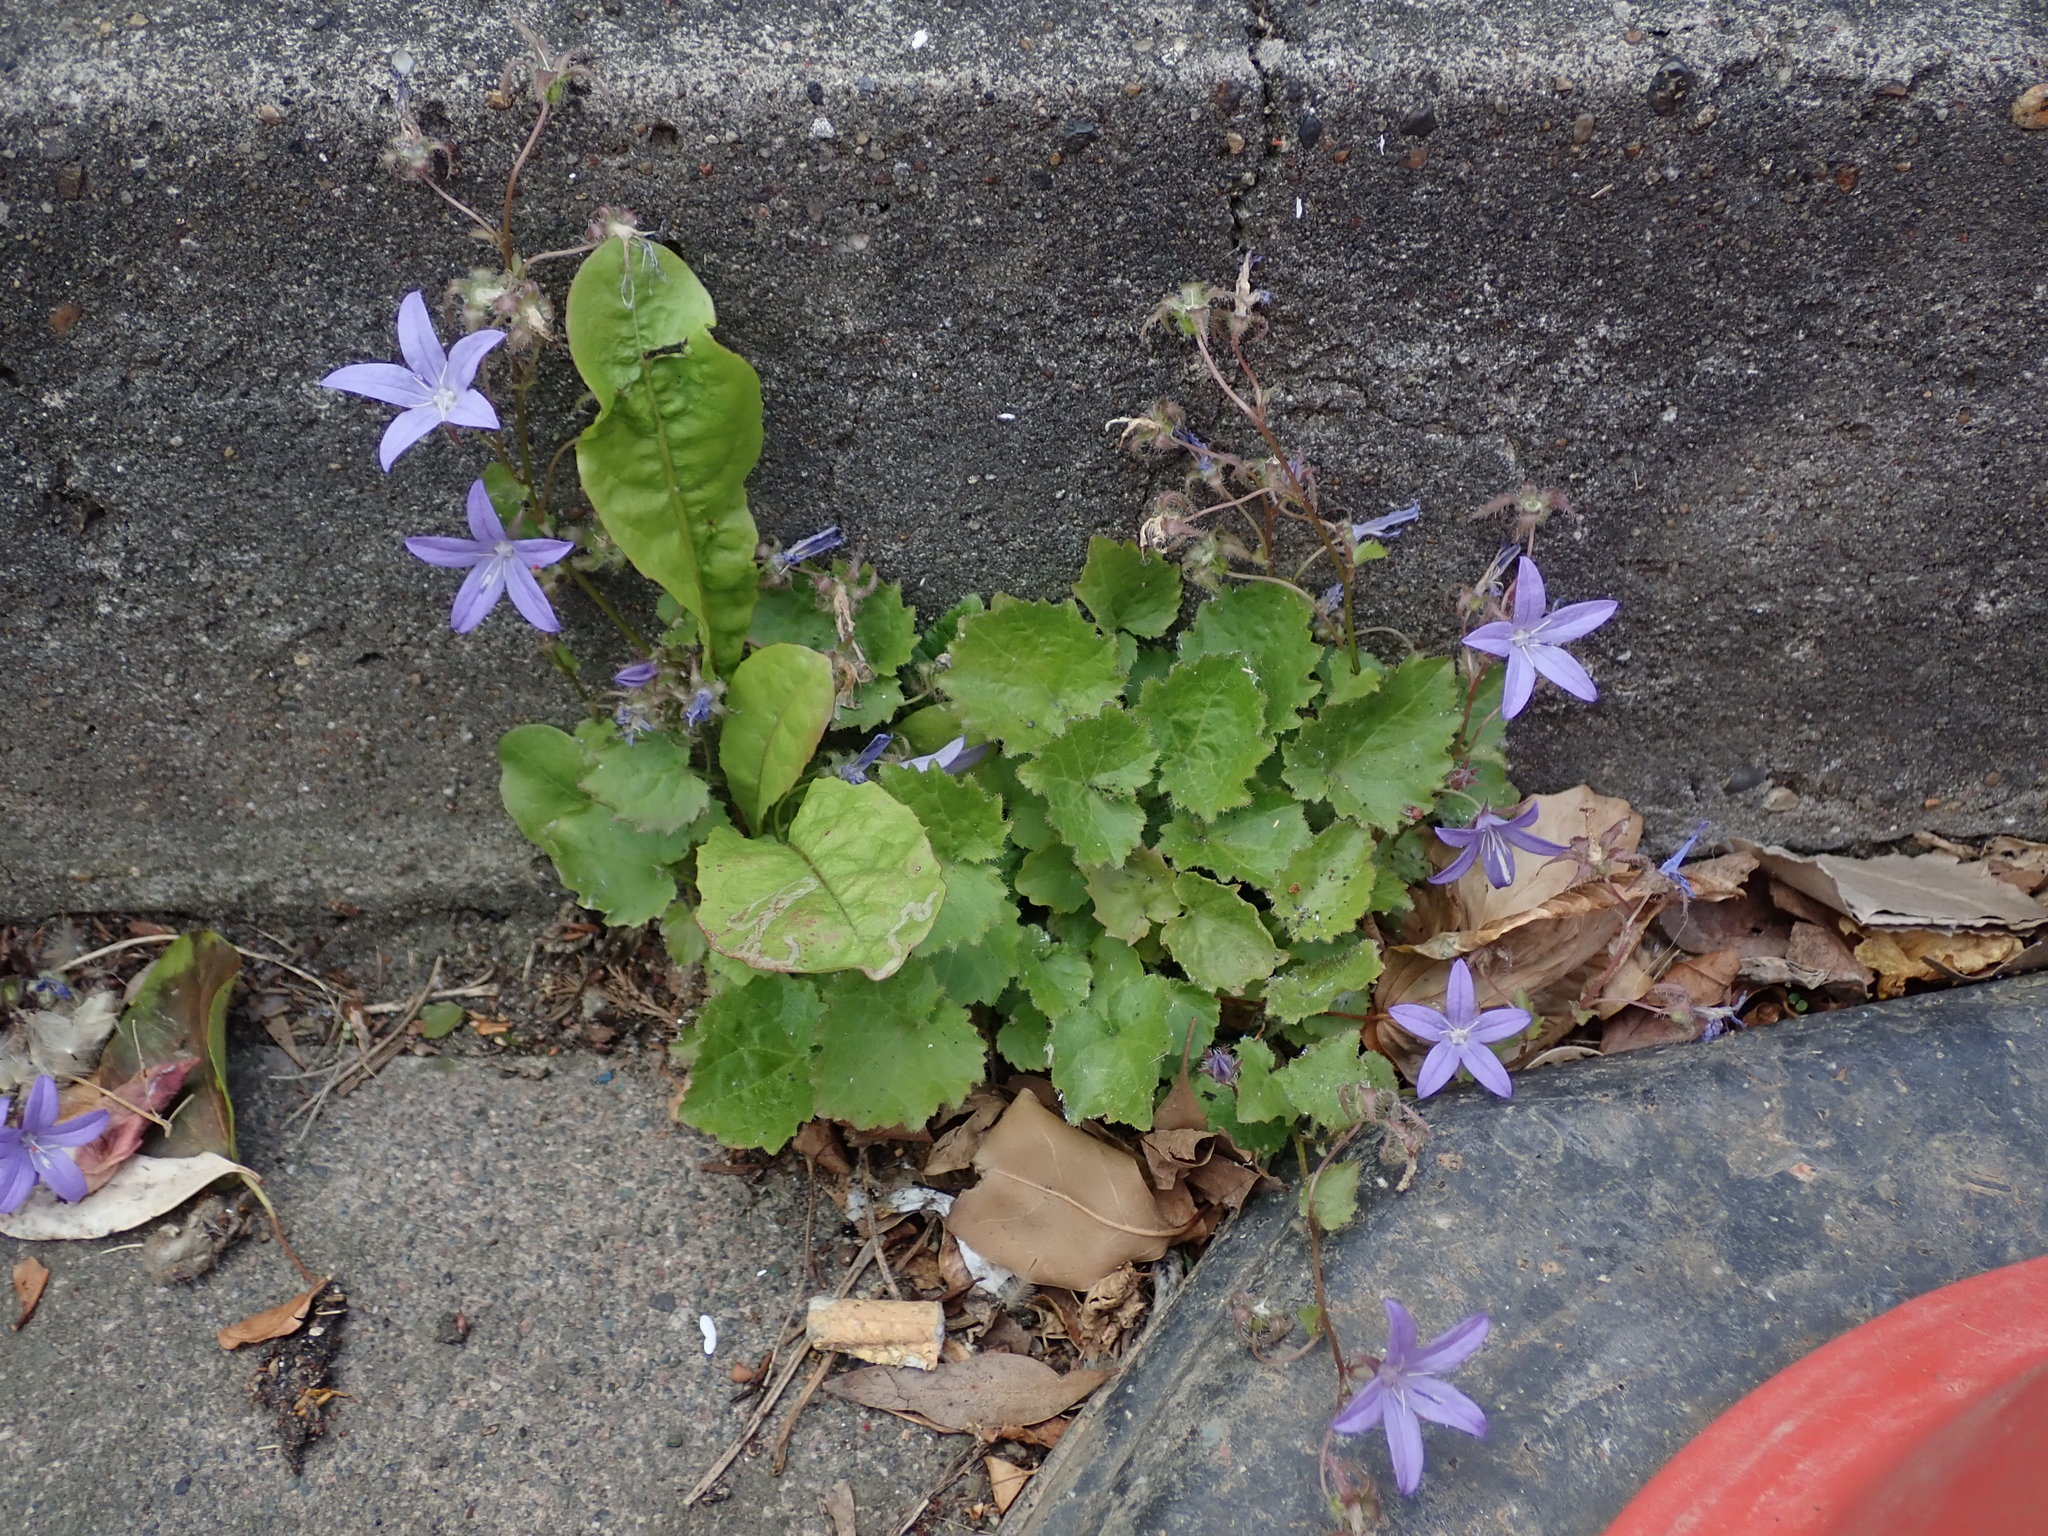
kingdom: Plantae
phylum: Tracheophyta
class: Magnoliopsida
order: Asterales
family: Campanulaceae
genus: Campanula
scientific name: Campanula poscharskyana
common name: Trailing bellflower
